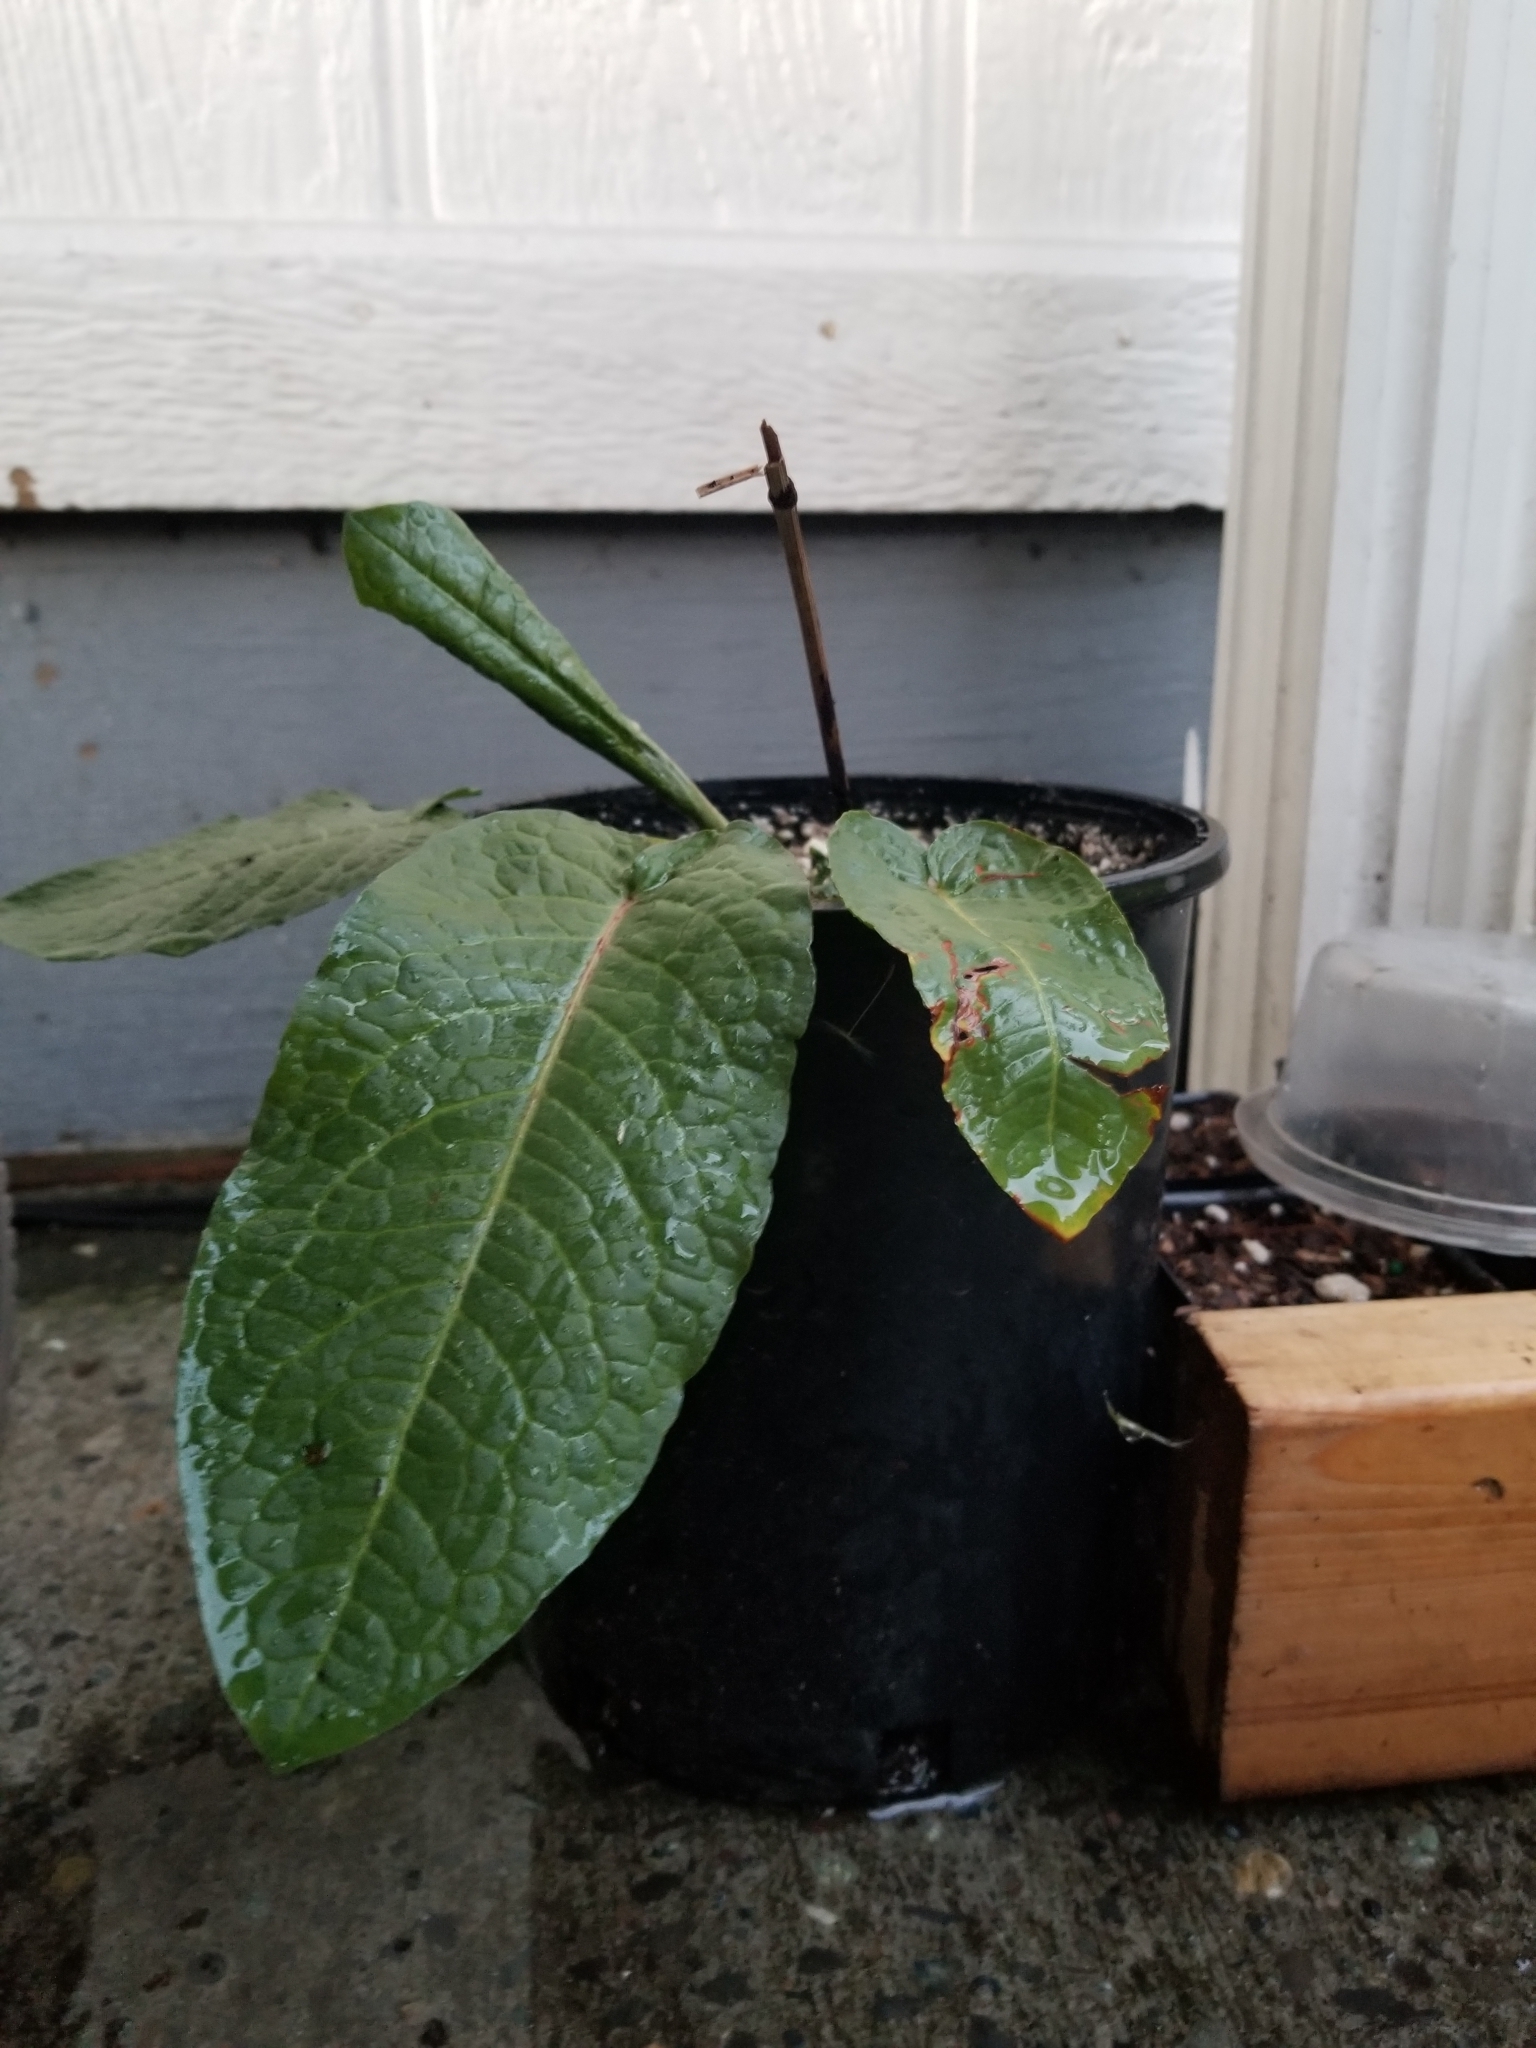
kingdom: Plantae
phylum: Tracheophyta
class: Magnoliopsida
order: Caryophyllales
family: Polygonaceae
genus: Rumex
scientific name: Rumex obtusifolius
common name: Bitter dock
